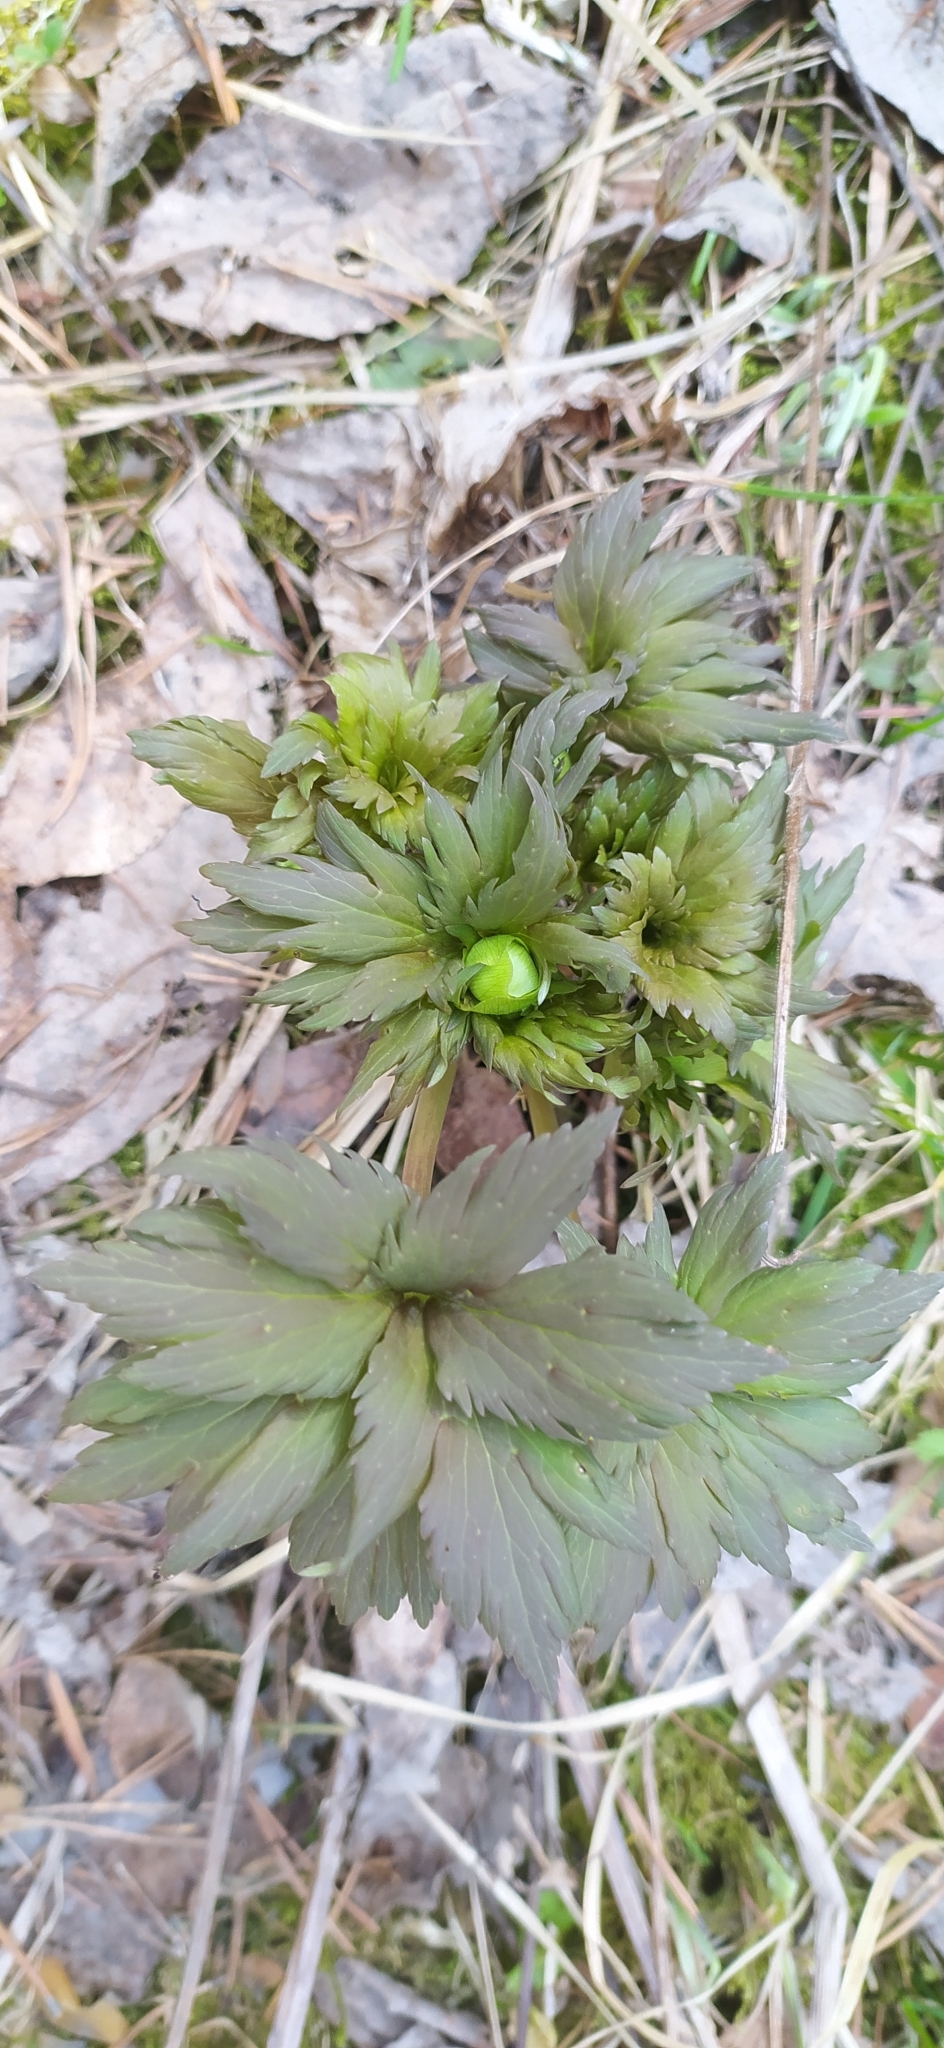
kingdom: Plantae
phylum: Tracheophyta
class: Magnoliopsida
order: Ranunculales
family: Ranunculaceae
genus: Trollius
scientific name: Trollius europaeus
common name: European globeflower
